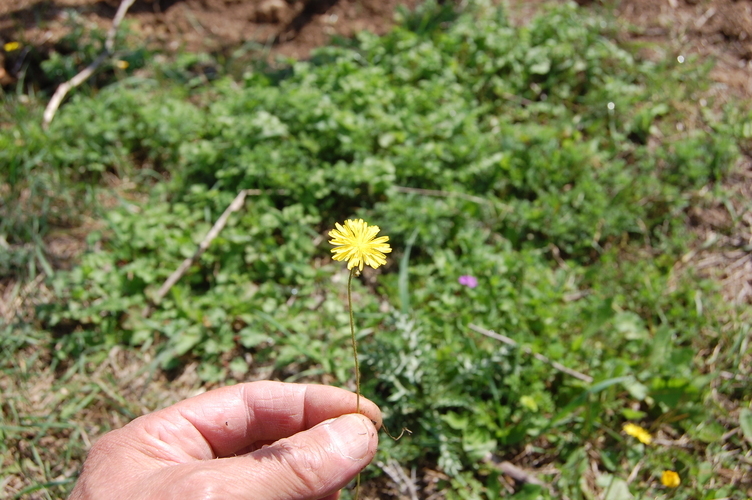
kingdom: Plantae
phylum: Tracheophyta
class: Magnoliopsida
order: Asterales
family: Asteraceae
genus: Crepis
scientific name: Crepis sancta
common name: Hawk's-beard
